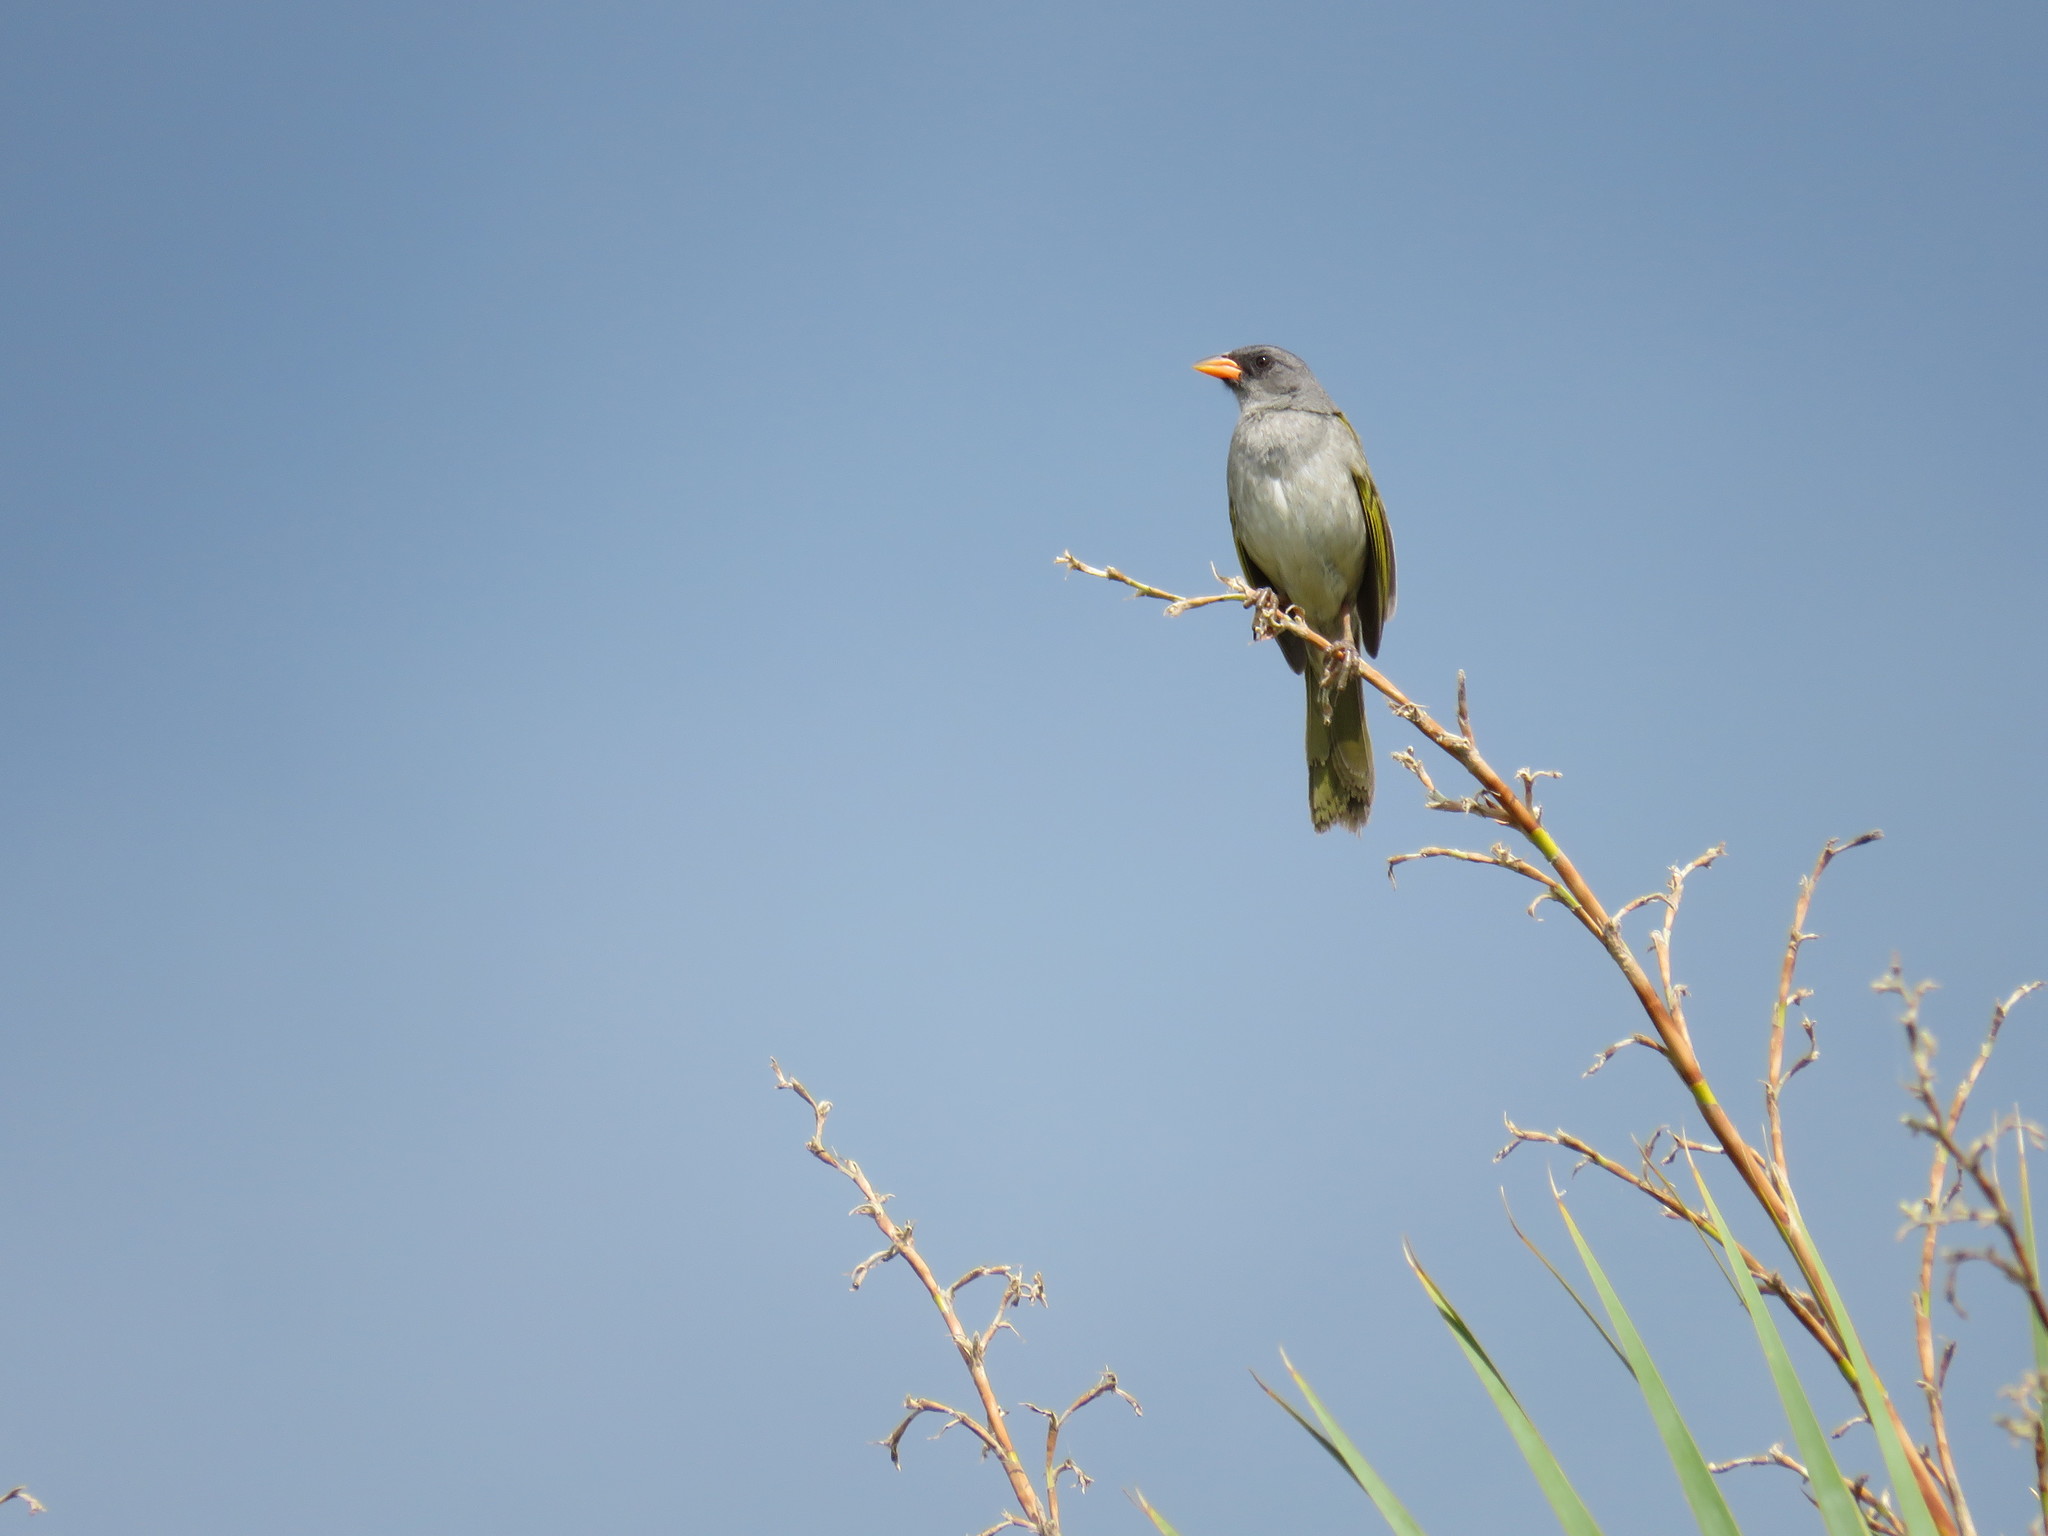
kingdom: Animalia
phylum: Chordata
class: Aves
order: Passeriformes
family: Thraupidae
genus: Embernagra
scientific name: Embernagra platensis
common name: Pampa finch
